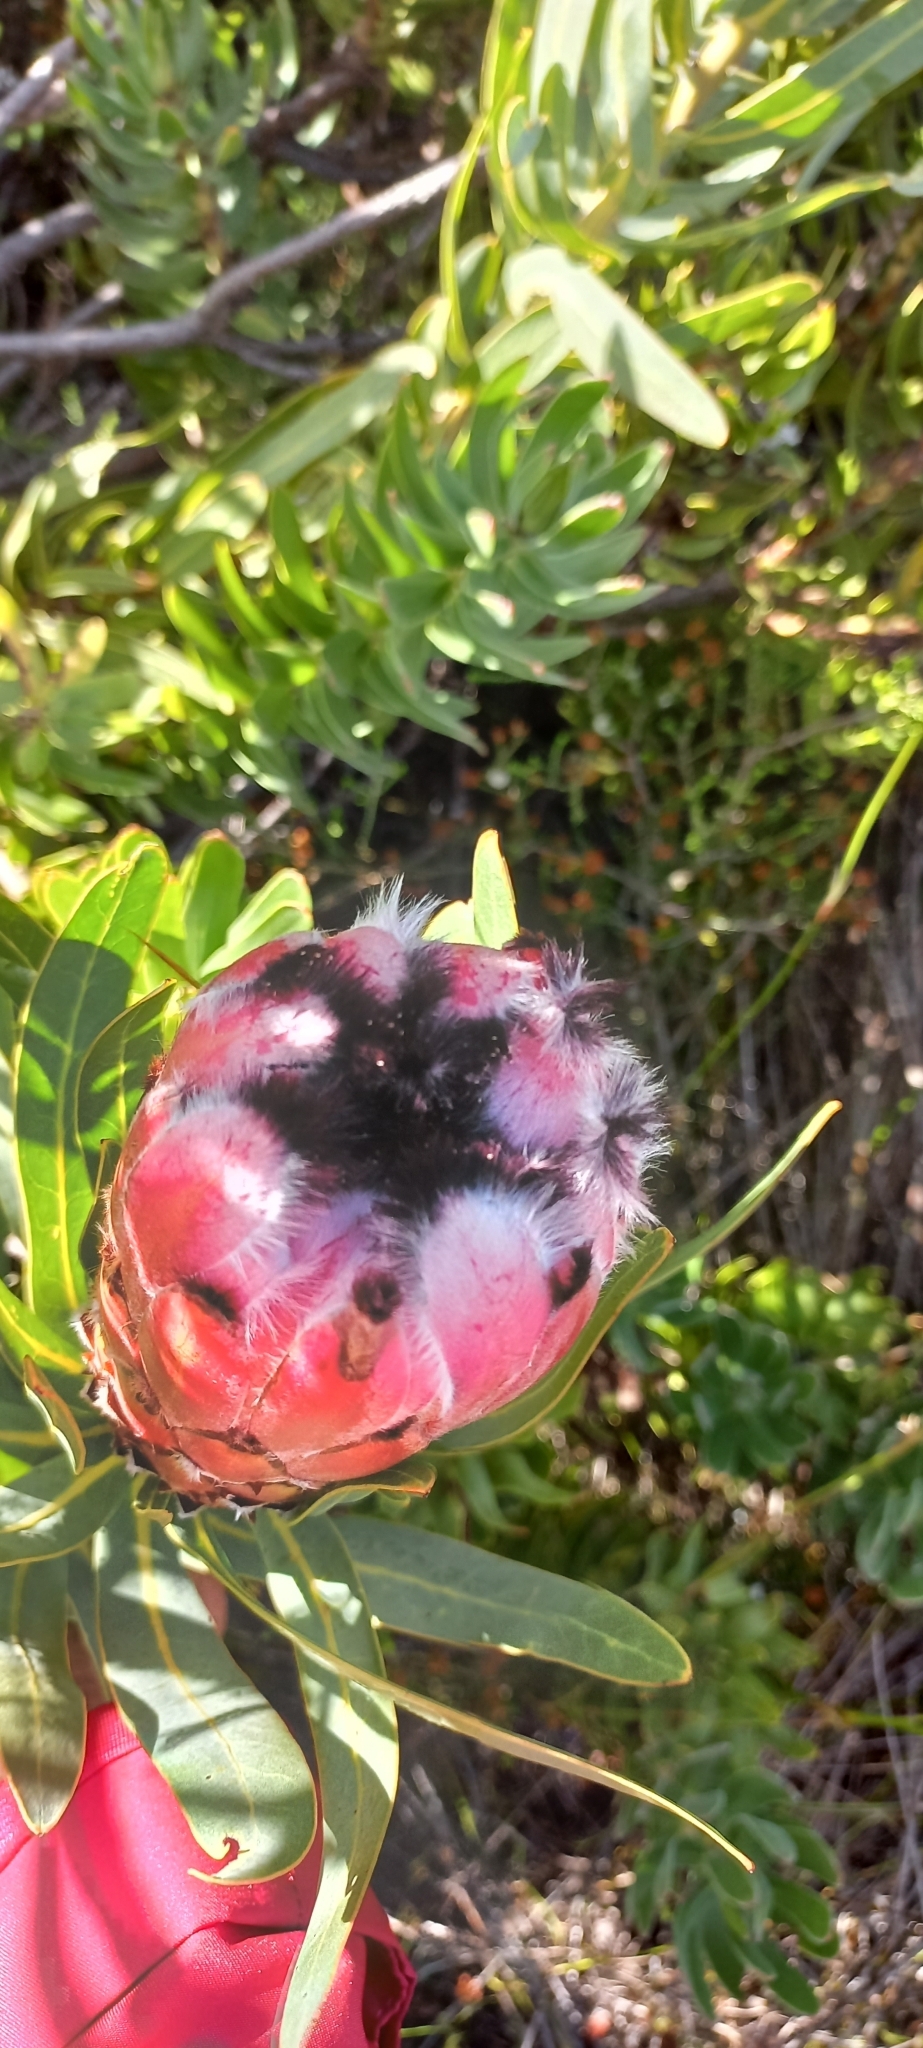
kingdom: Plantae
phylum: Tracheophyta
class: Magnoliopsida
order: Proteales
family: Proteaceae
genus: Protea
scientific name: Protea
